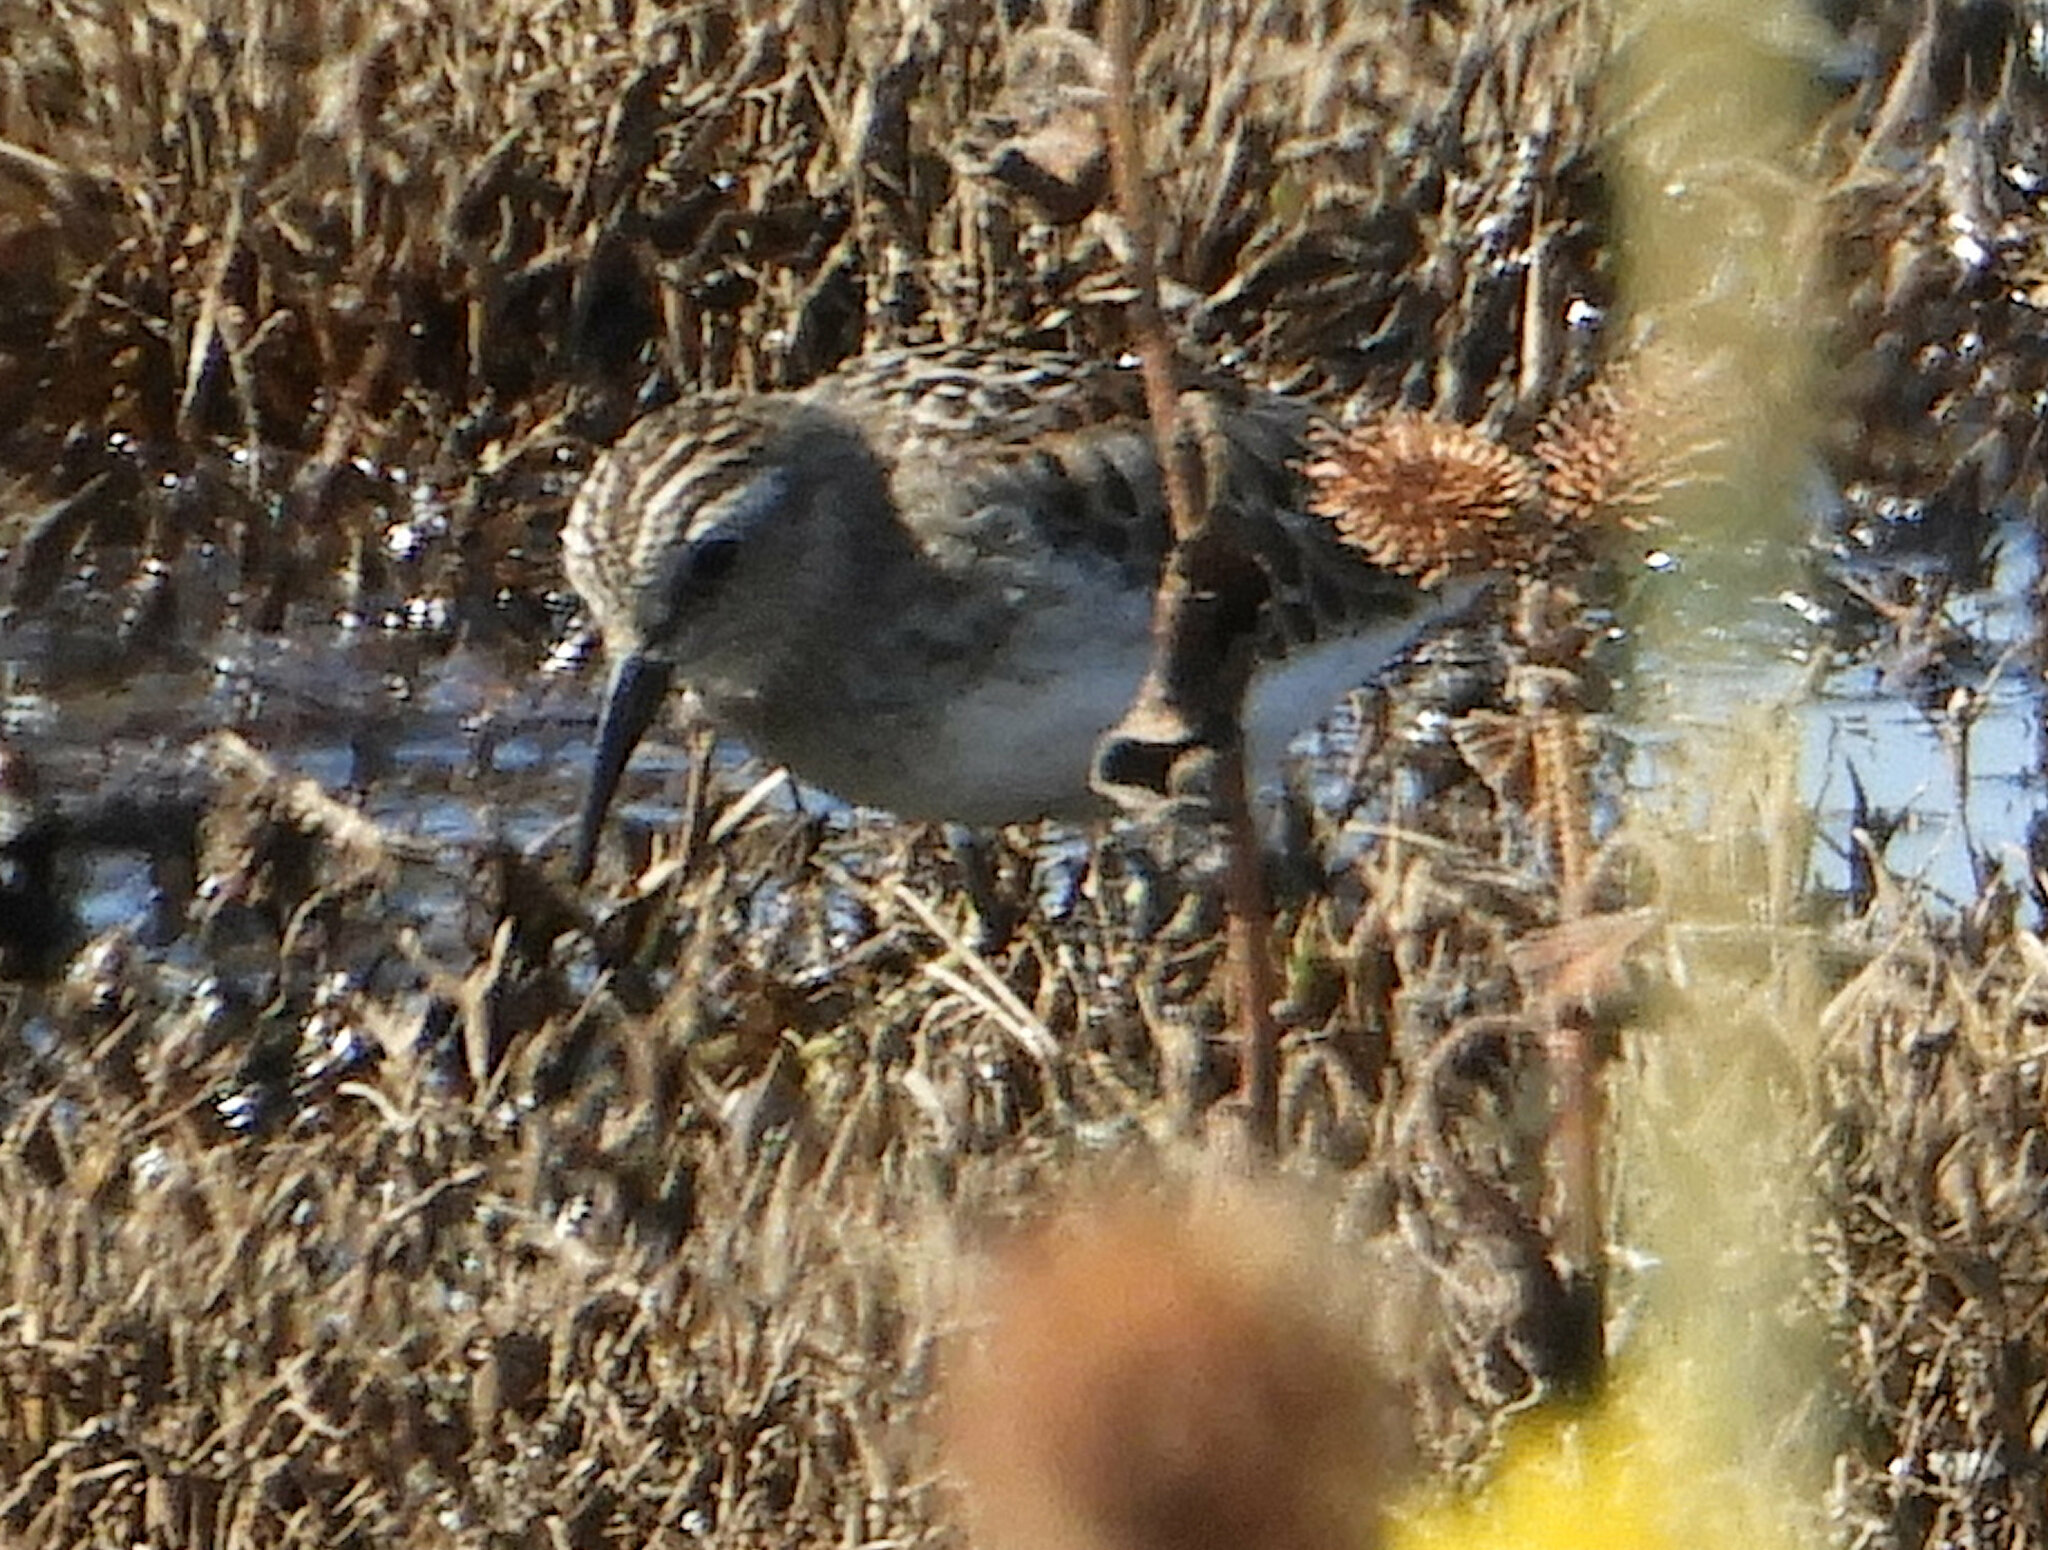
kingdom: Animalia
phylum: Chordata
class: Aves
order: Charadriiformes
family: Scolopacidae
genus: Calidris
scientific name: Calidris minutilla
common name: Least sandpiper
